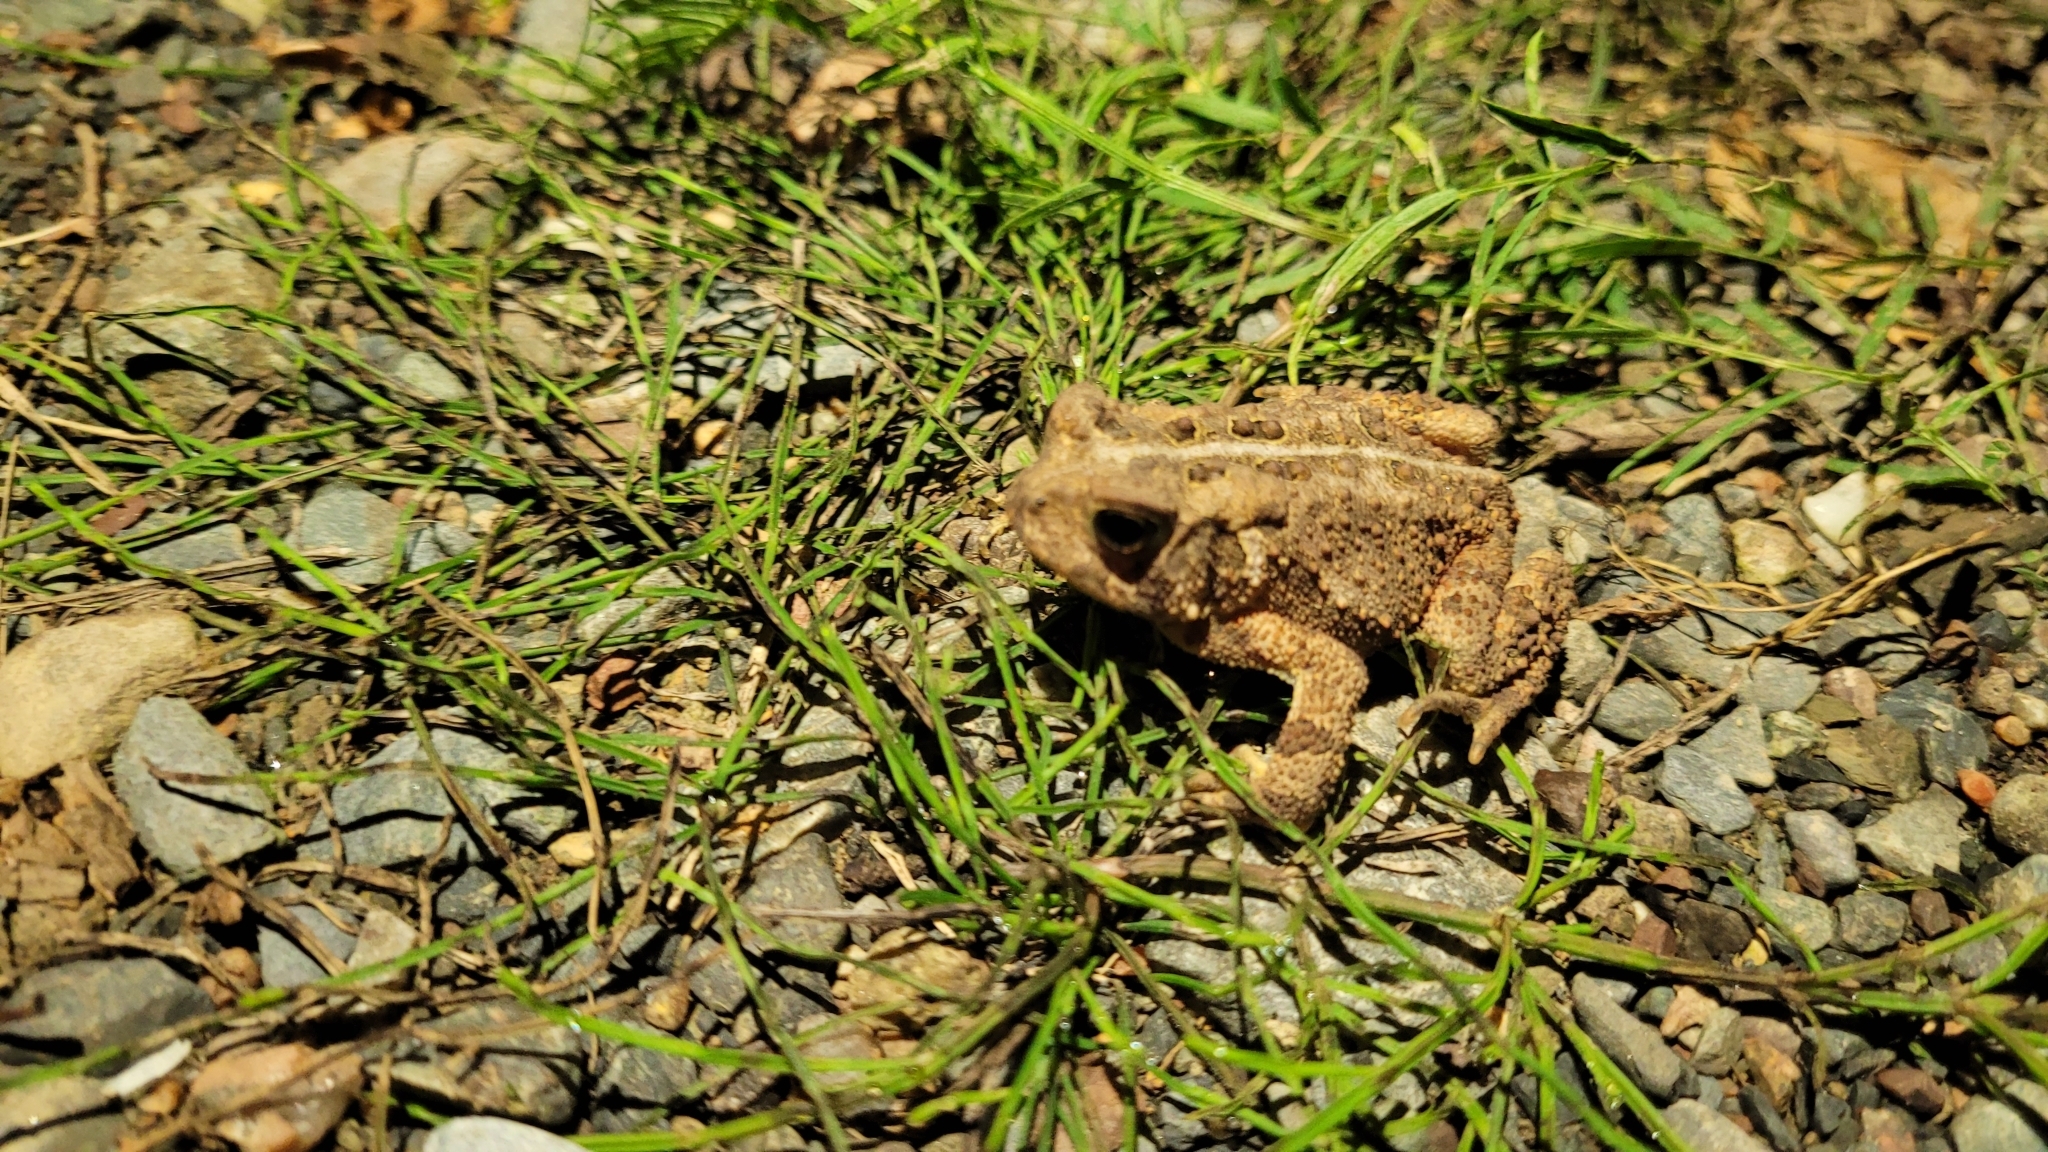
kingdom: Animalia
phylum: Chordata
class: Amphibia
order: Anura
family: Bufonidae
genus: Anaxyrus
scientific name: Anaxyrus americanus
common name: American toad
